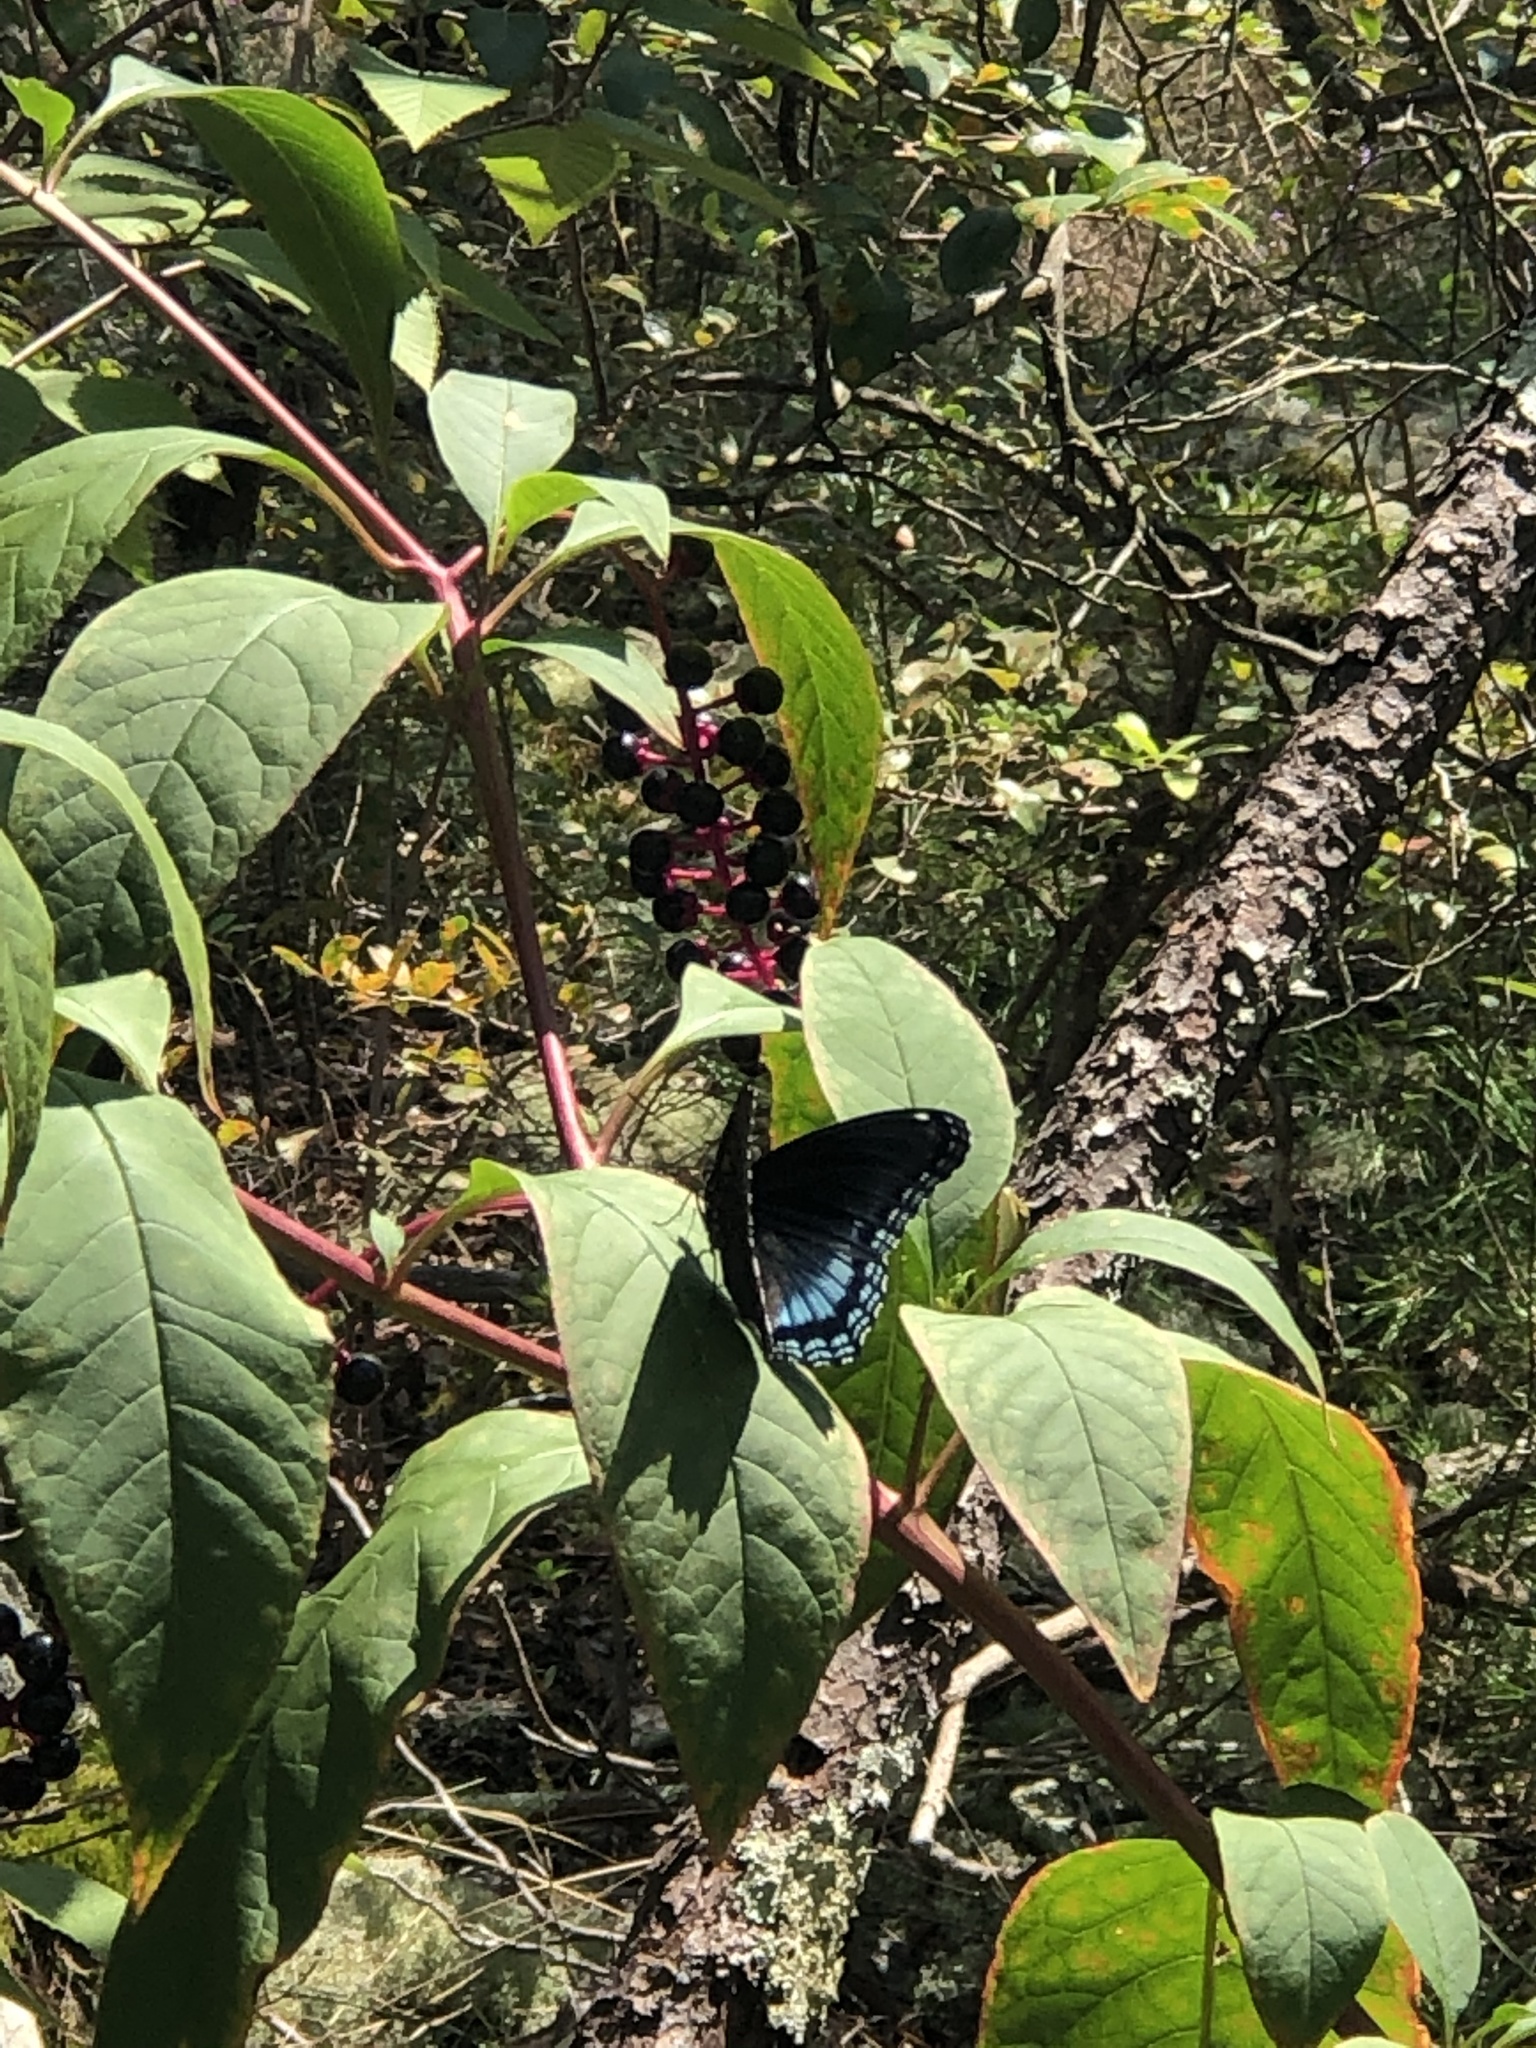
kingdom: Animalia
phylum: Arthropoda
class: Insecta
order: Lepidoptera
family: Nymphalidae
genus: Limenitis
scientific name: Limenitis astyanax
